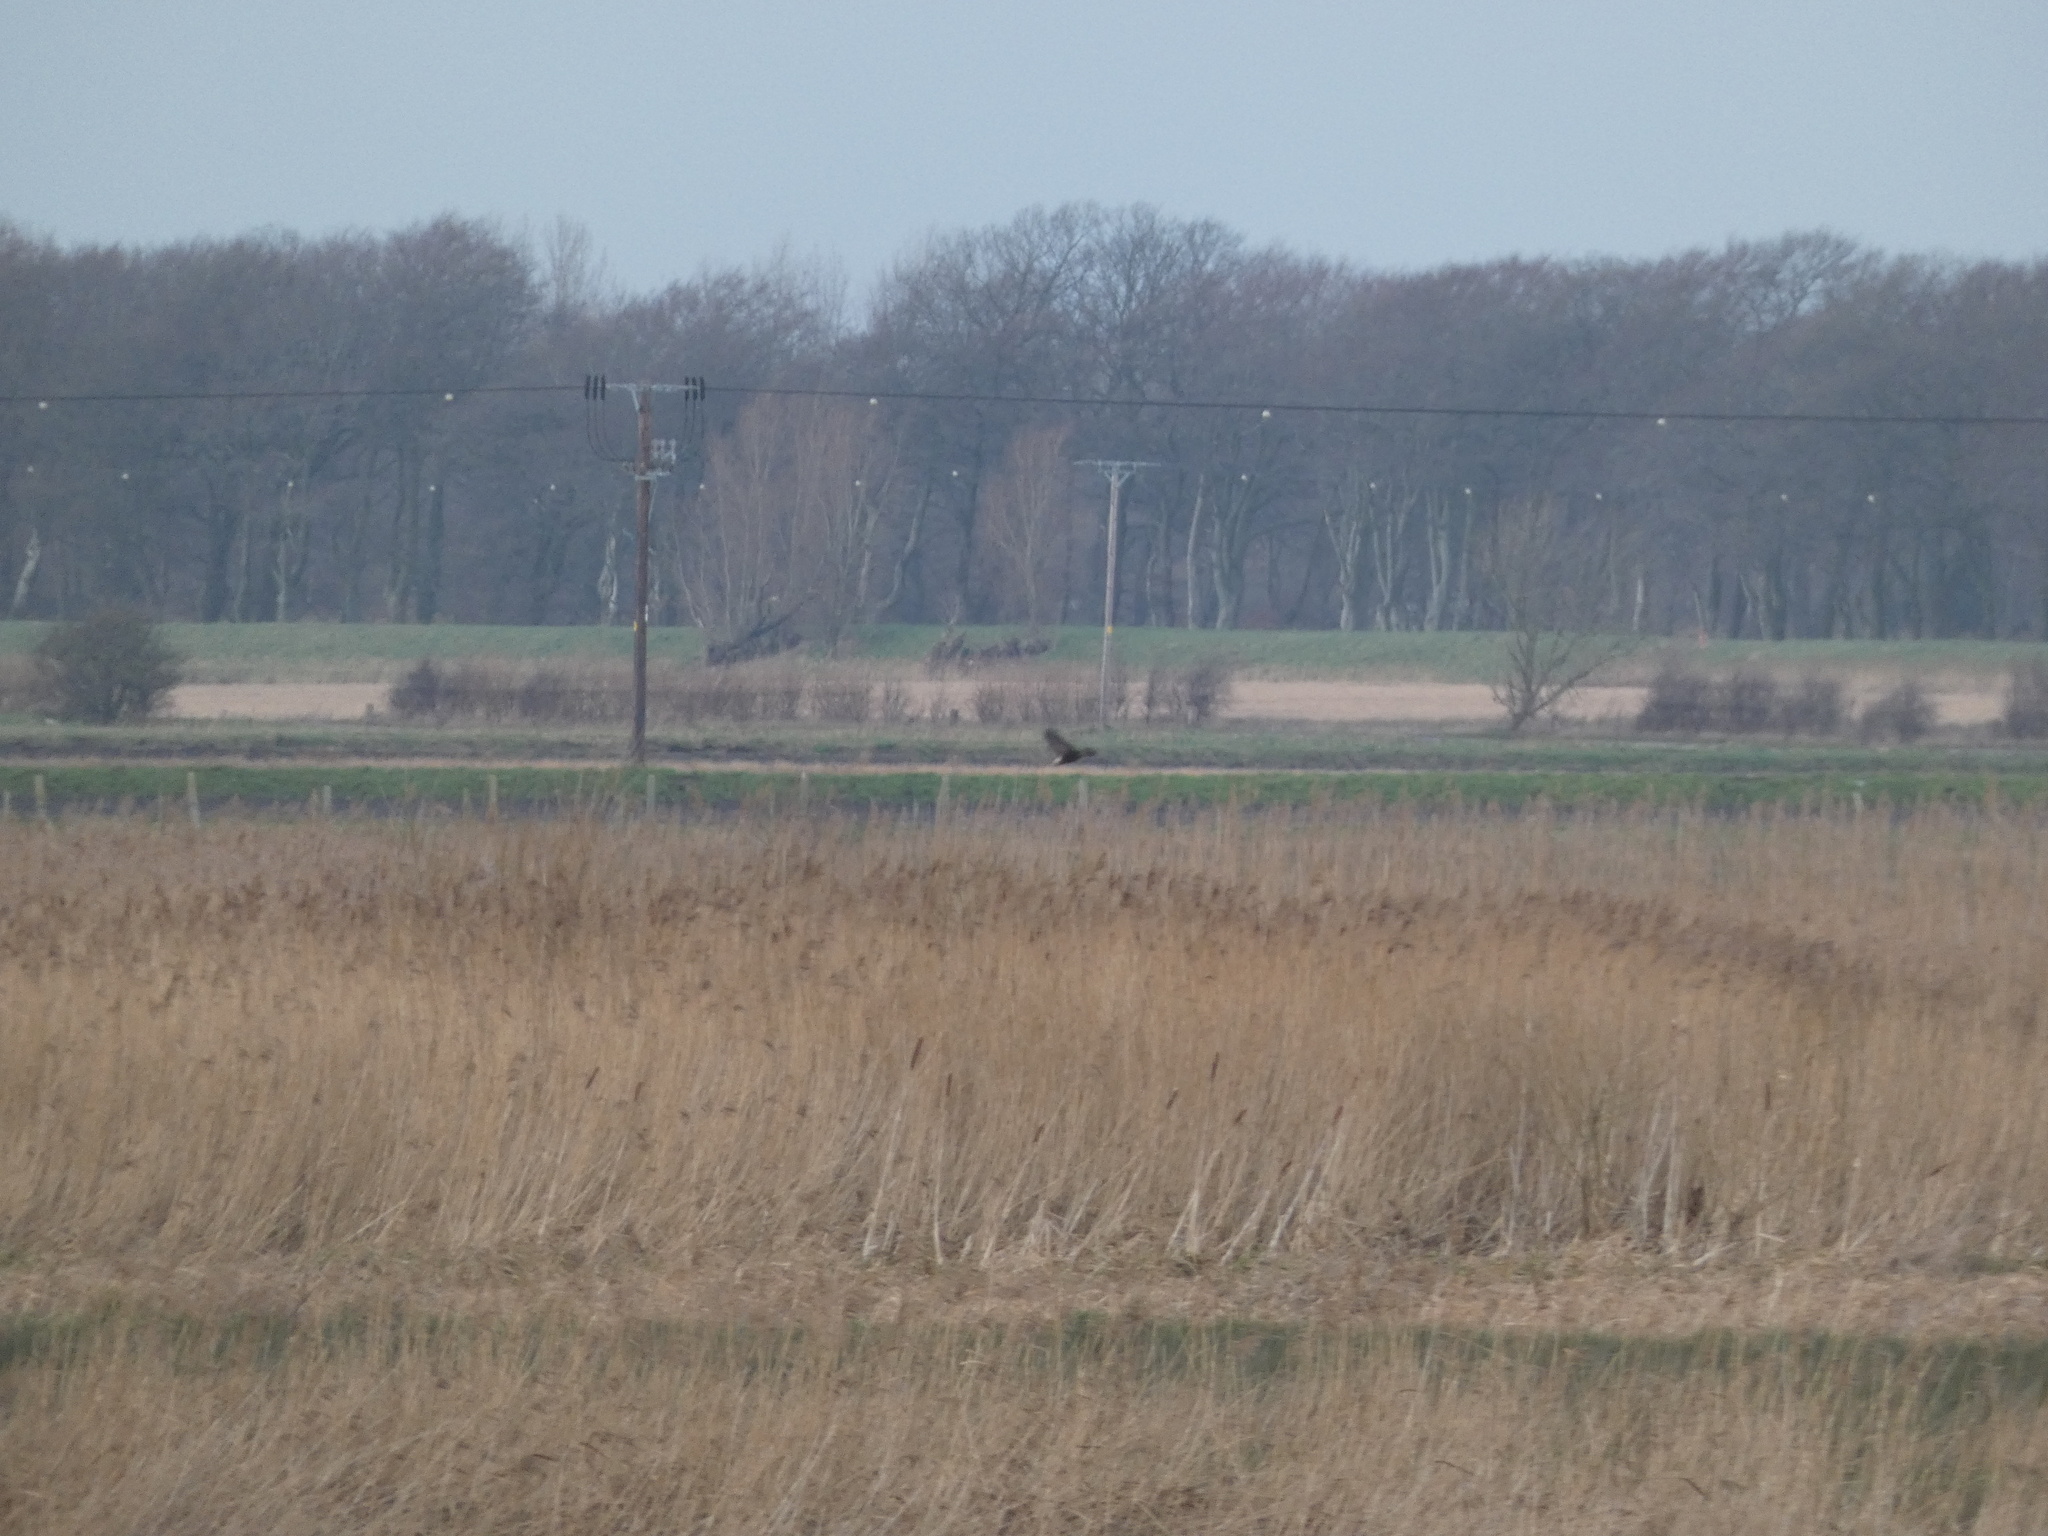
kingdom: Animalia
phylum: Chordata
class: Aves
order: Accipitriformes
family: Accipitridae
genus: Circus
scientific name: Circus aeruginosus
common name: Western marsh harrier
